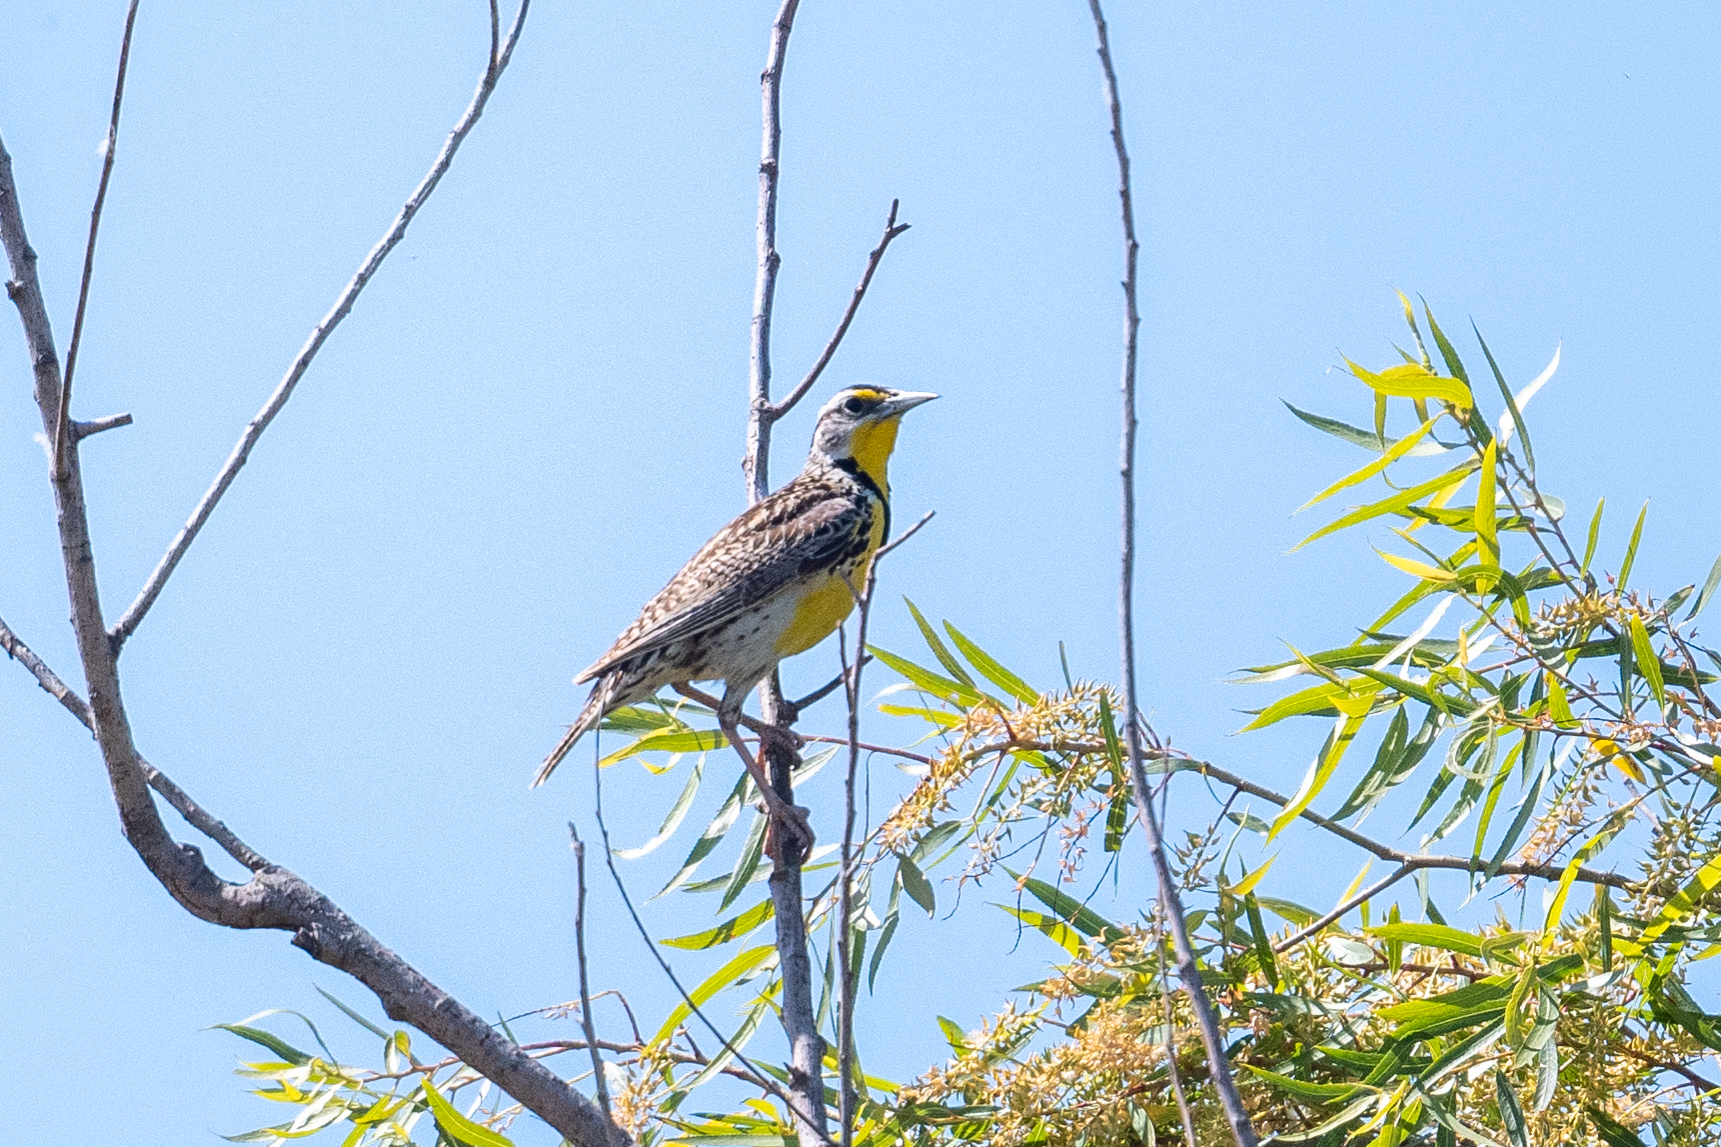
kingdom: Animalia
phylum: Chordata
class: Aves
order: Passeriformes
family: Icteridae
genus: Sturnella
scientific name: Sturnella neglecta
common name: Western meadowlark
